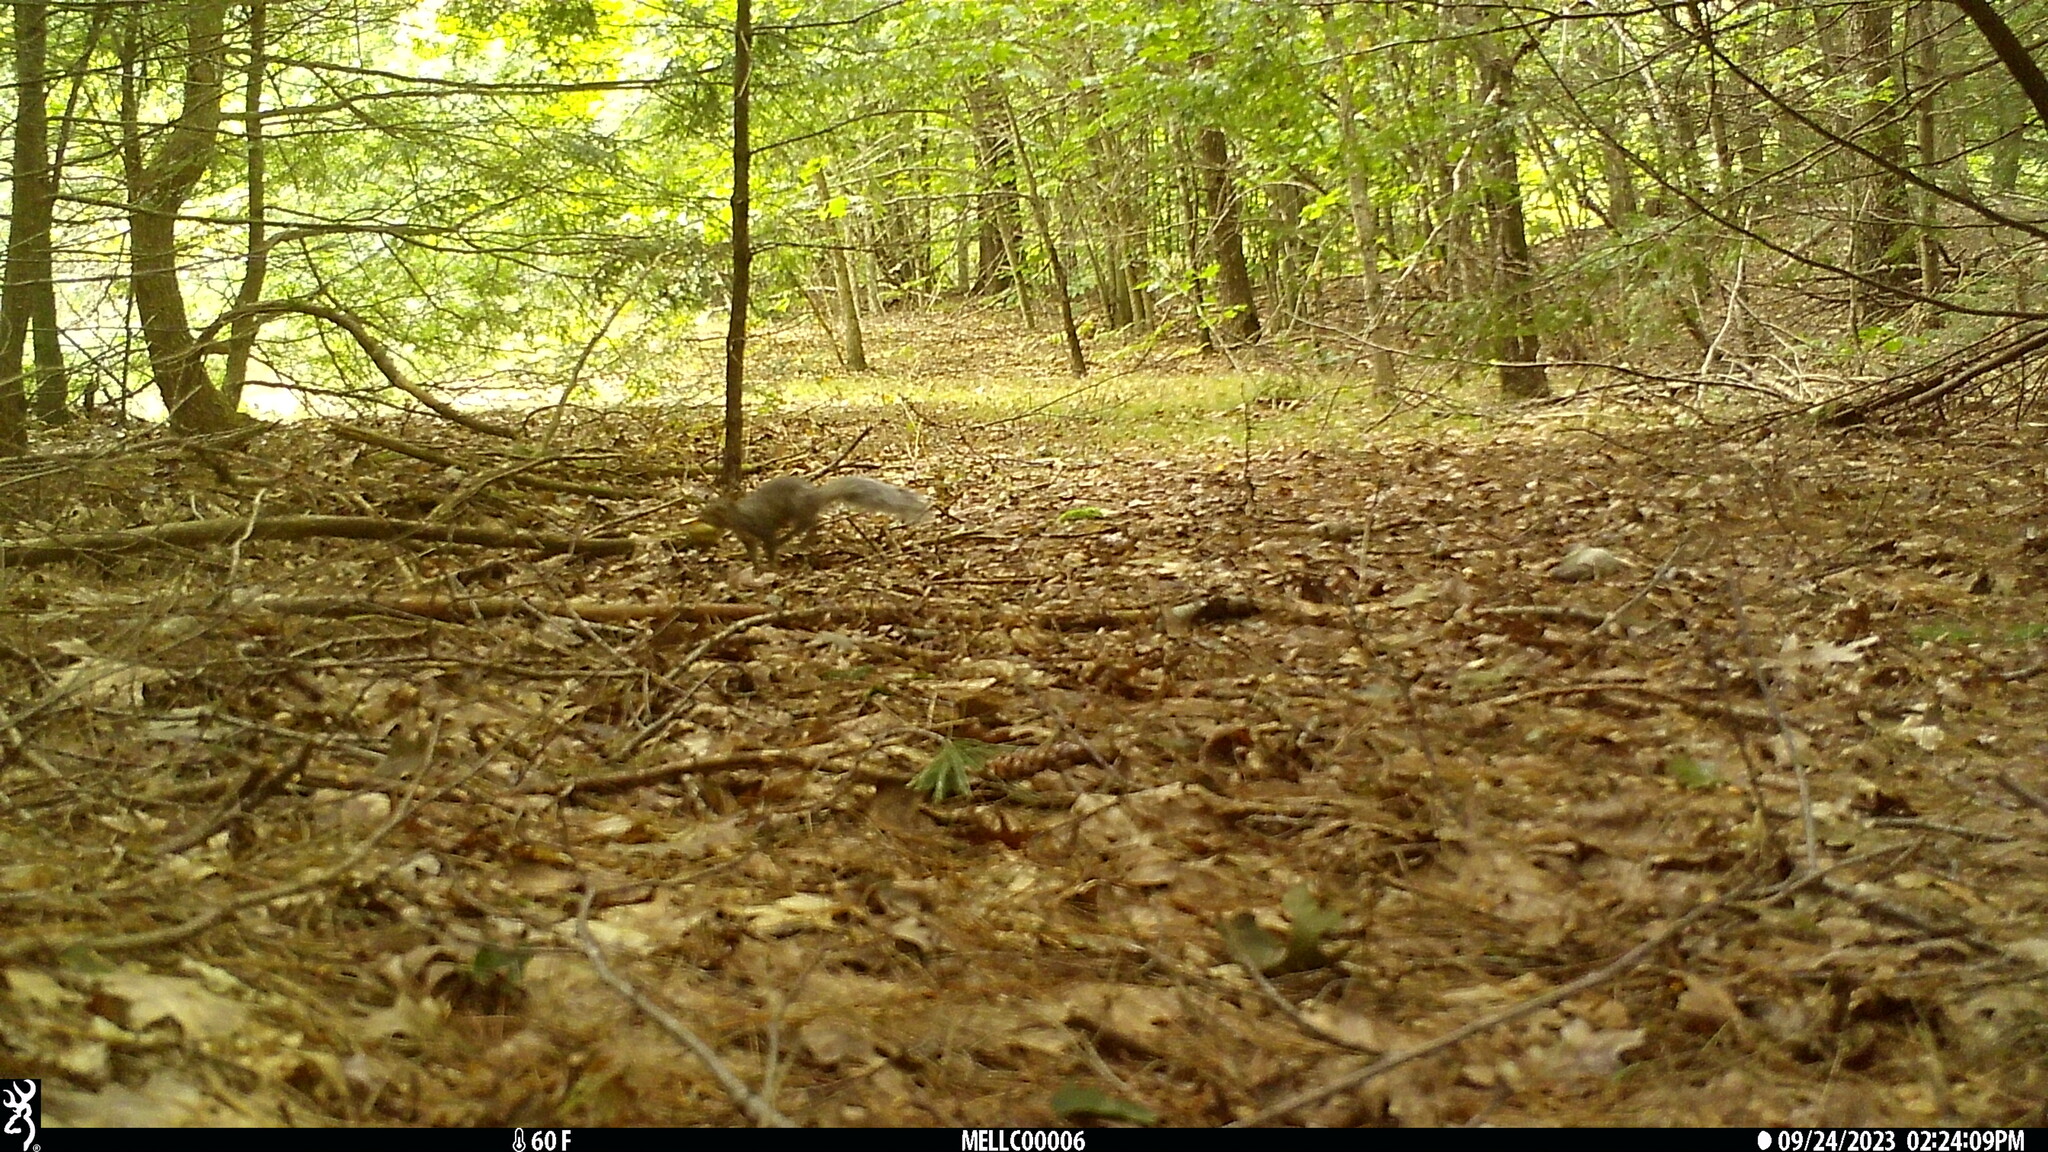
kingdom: Animalia
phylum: Chordata
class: Mammalia
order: Rodentia
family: Sciuridae
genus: Sciurus
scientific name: Sciurus carolinensis
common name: Eastern gray squirrel
